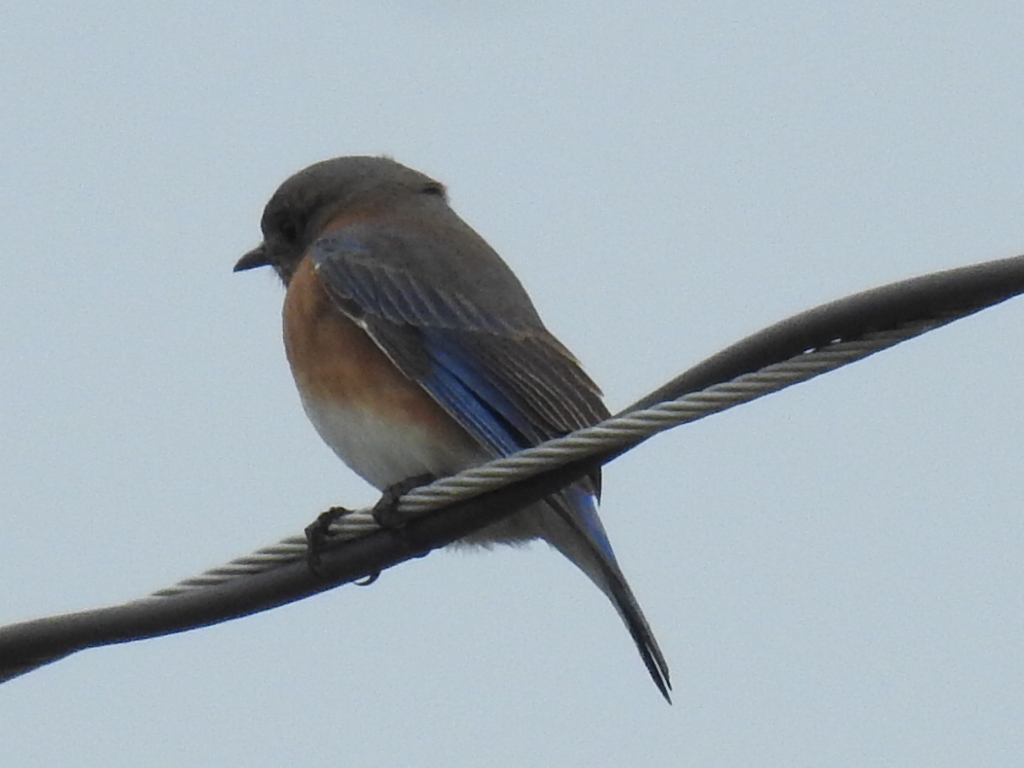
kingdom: Animalia
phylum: Chordata
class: Aves
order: Passeriformes
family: Turdidae
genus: Sialia
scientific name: Sialia sialis
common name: Eastern bluebird
